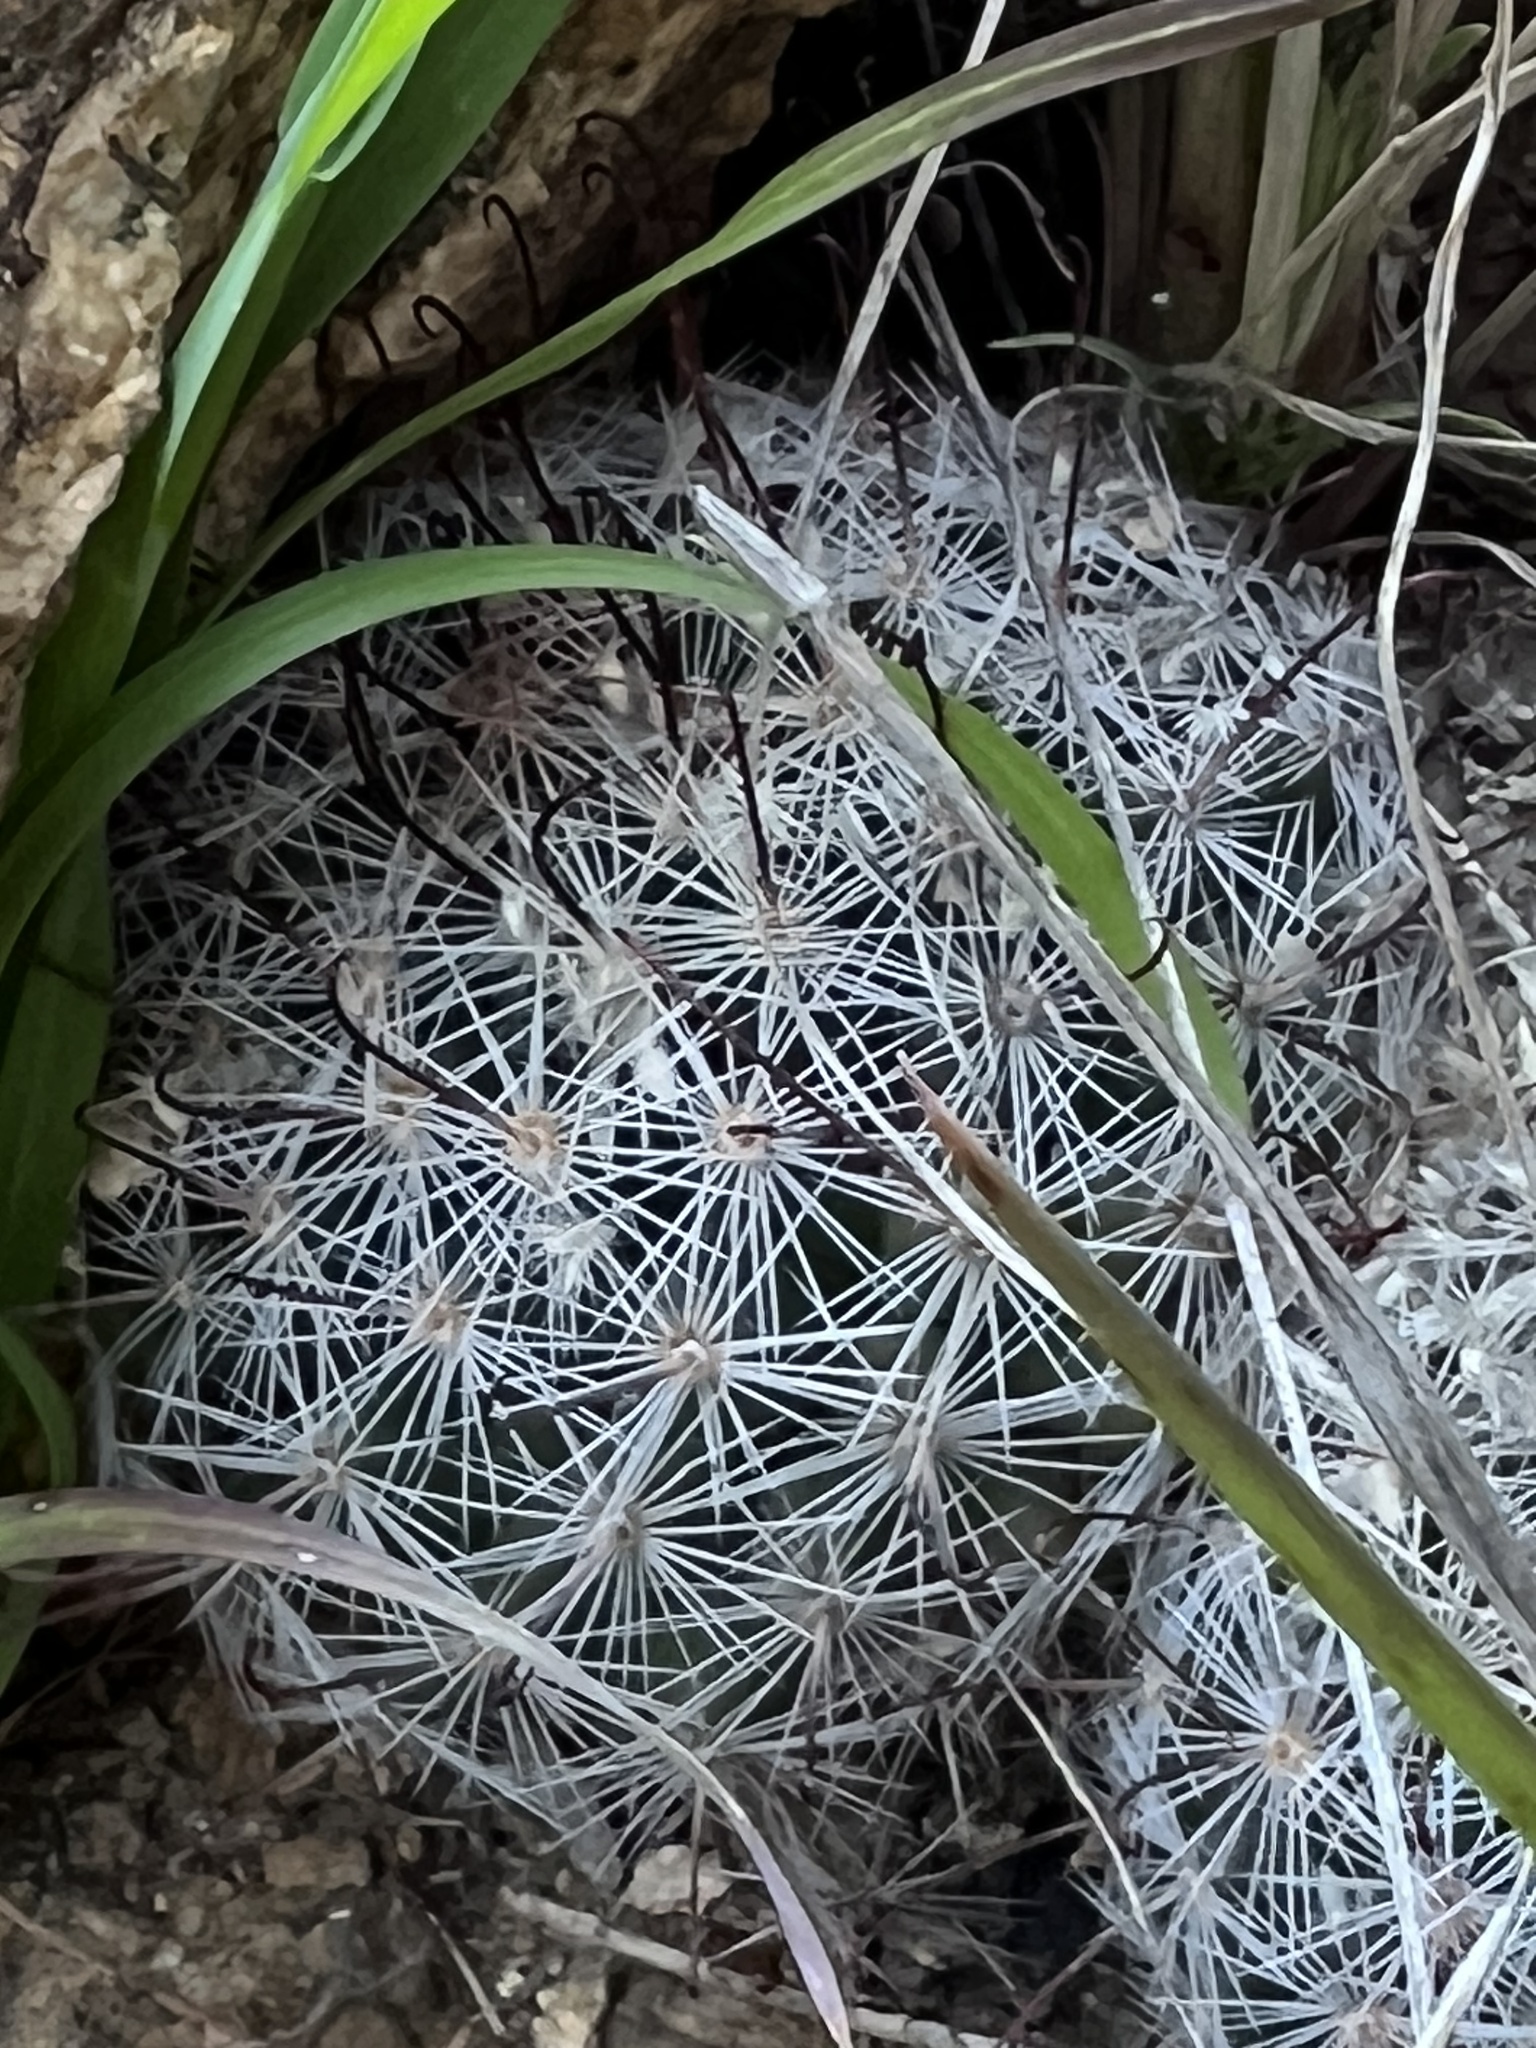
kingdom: Plantae
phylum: Tracheophyta
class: Magnoliopsida
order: Caryophyllales
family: Cactaceae
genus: Cochemiea
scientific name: Cochemiea grahamii
